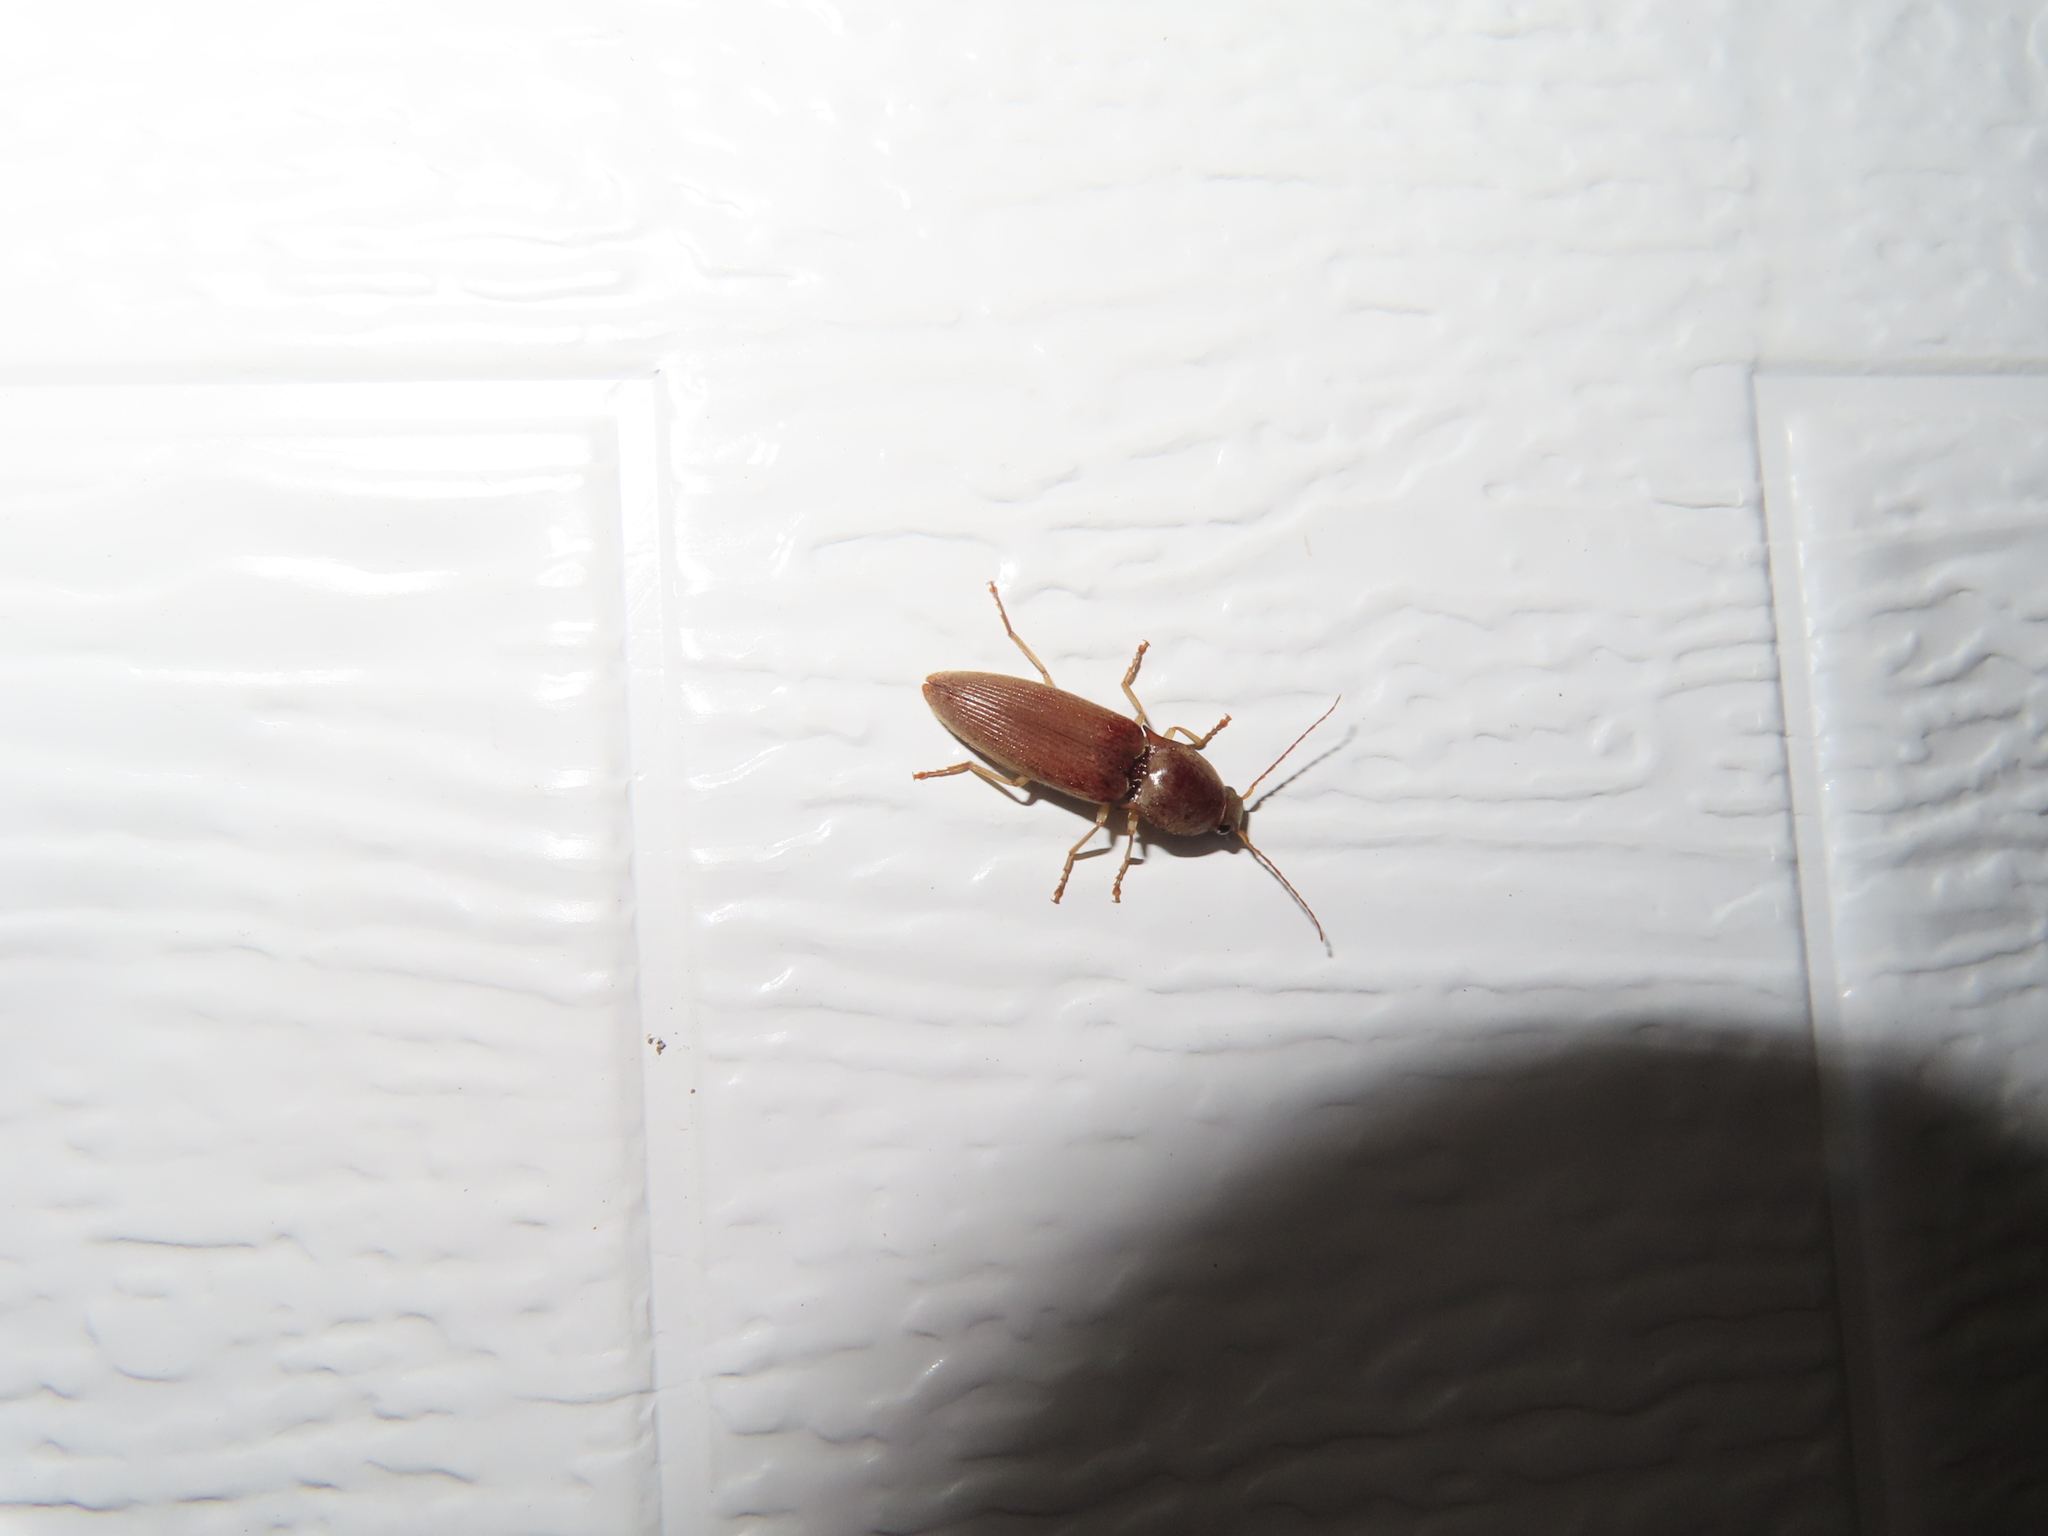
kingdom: Animalia
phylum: Arthropoda
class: Insecta
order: Coleoptera
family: Elateridae
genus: Monocrepidius
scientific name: Monocrepidius lividus
